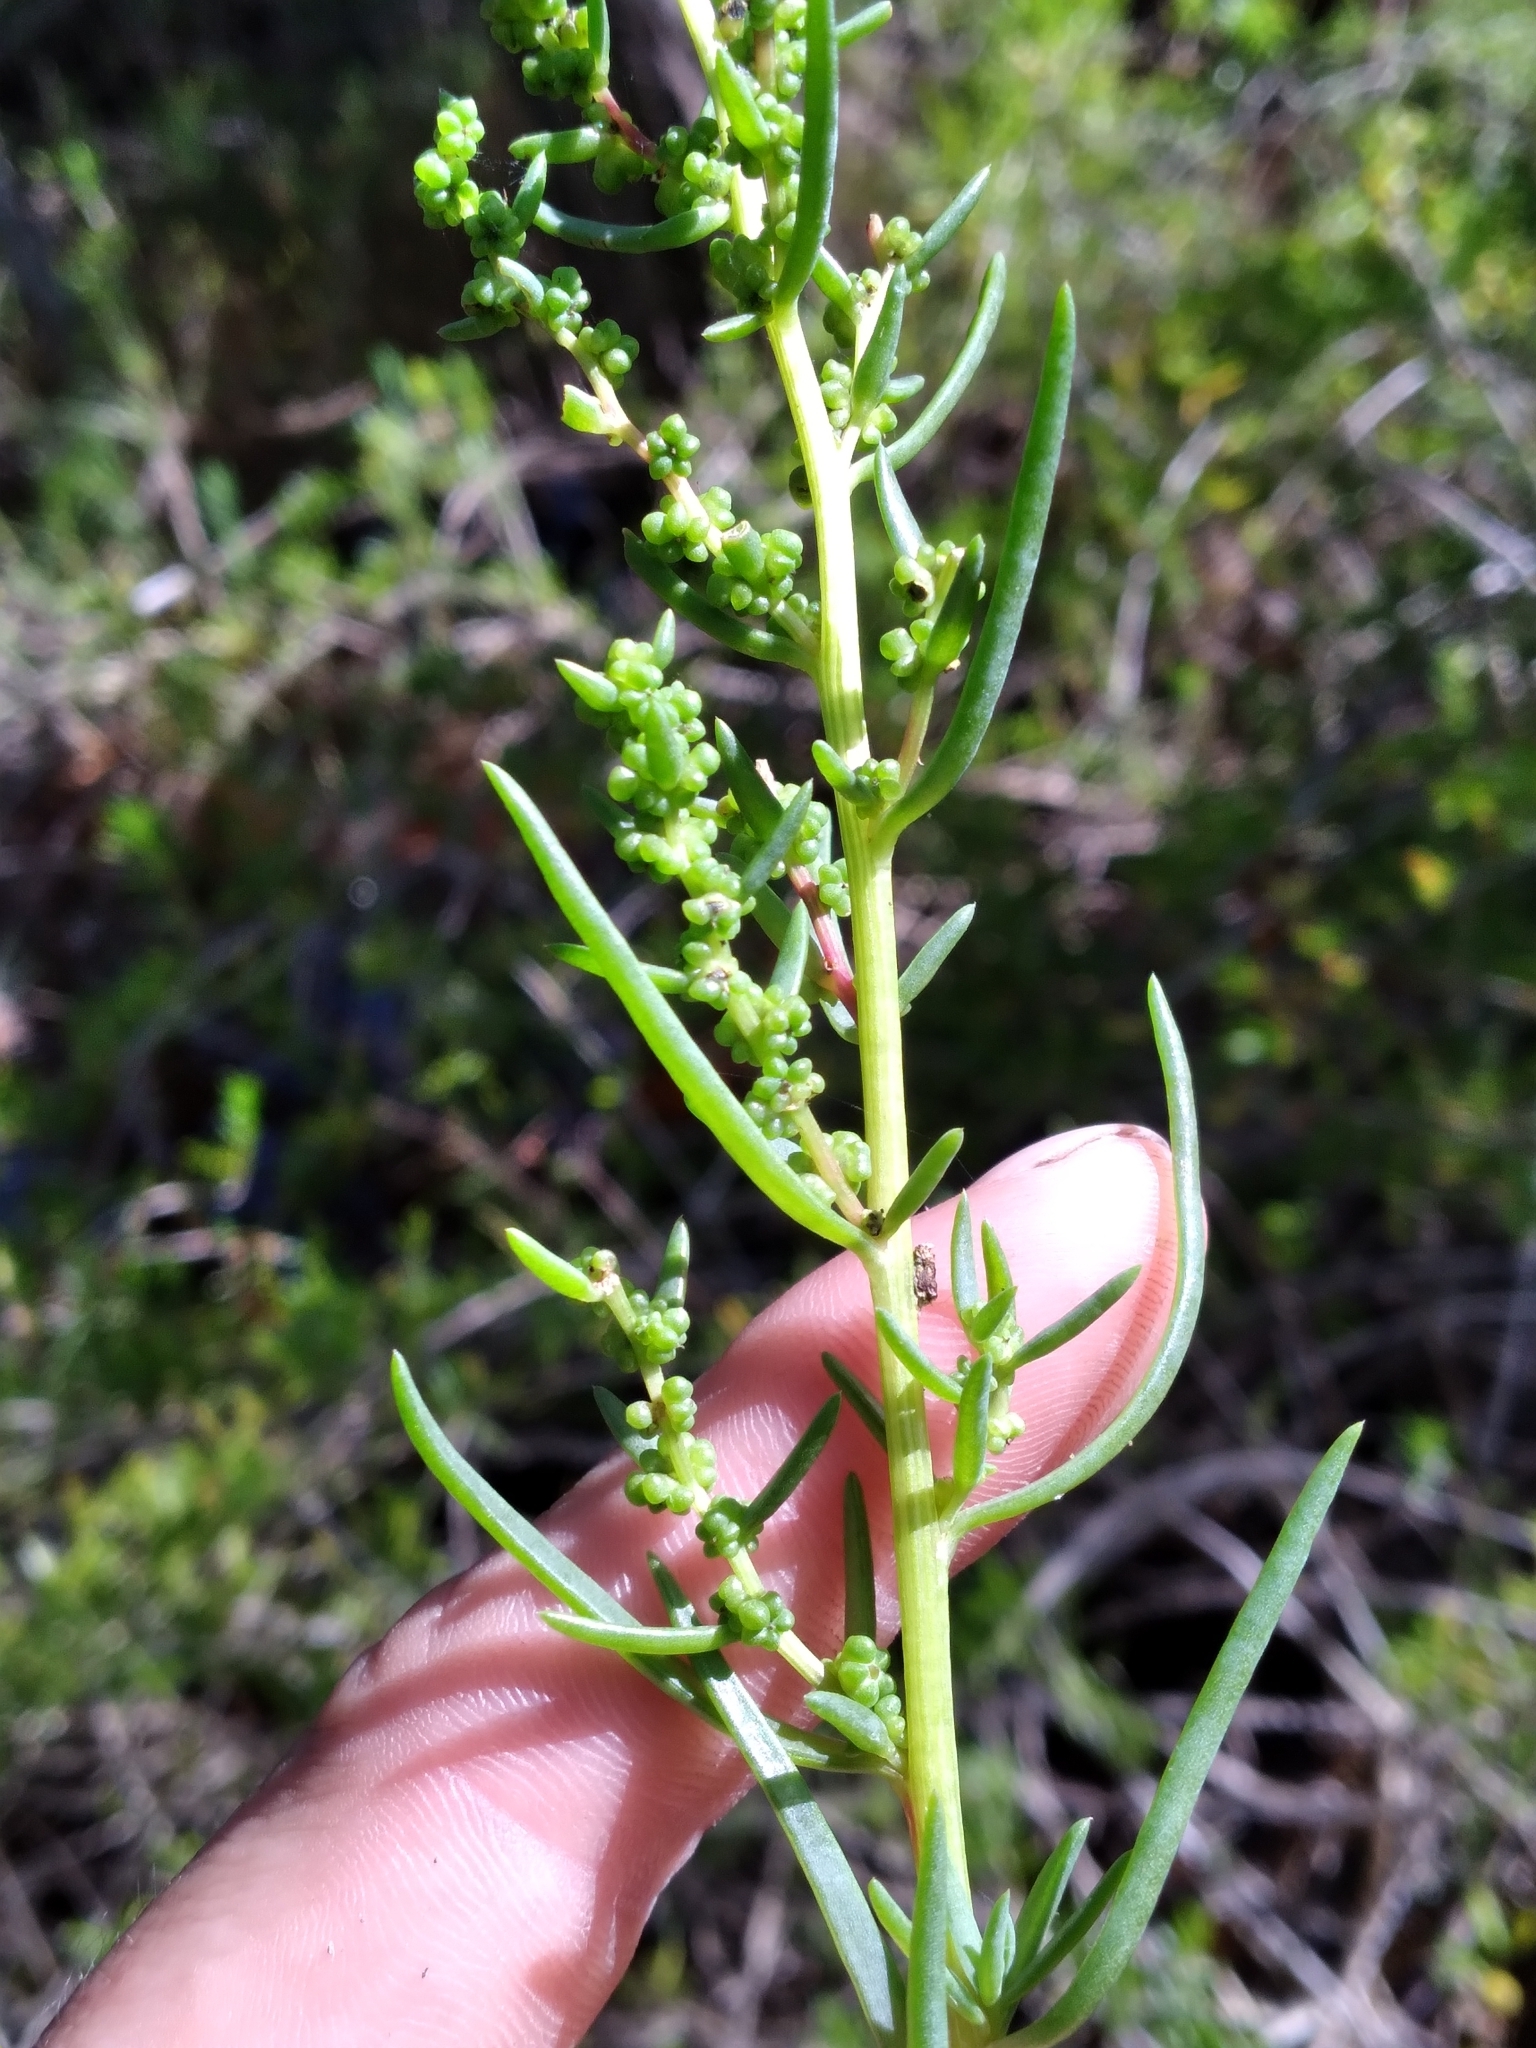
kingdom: Plantae
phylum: Tracheophyta
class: Magnoliopsida
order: Caryophyllales
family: Amaranthaceae
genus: Suaeda
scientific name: Suaeda linearis
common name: Annual seepweed
